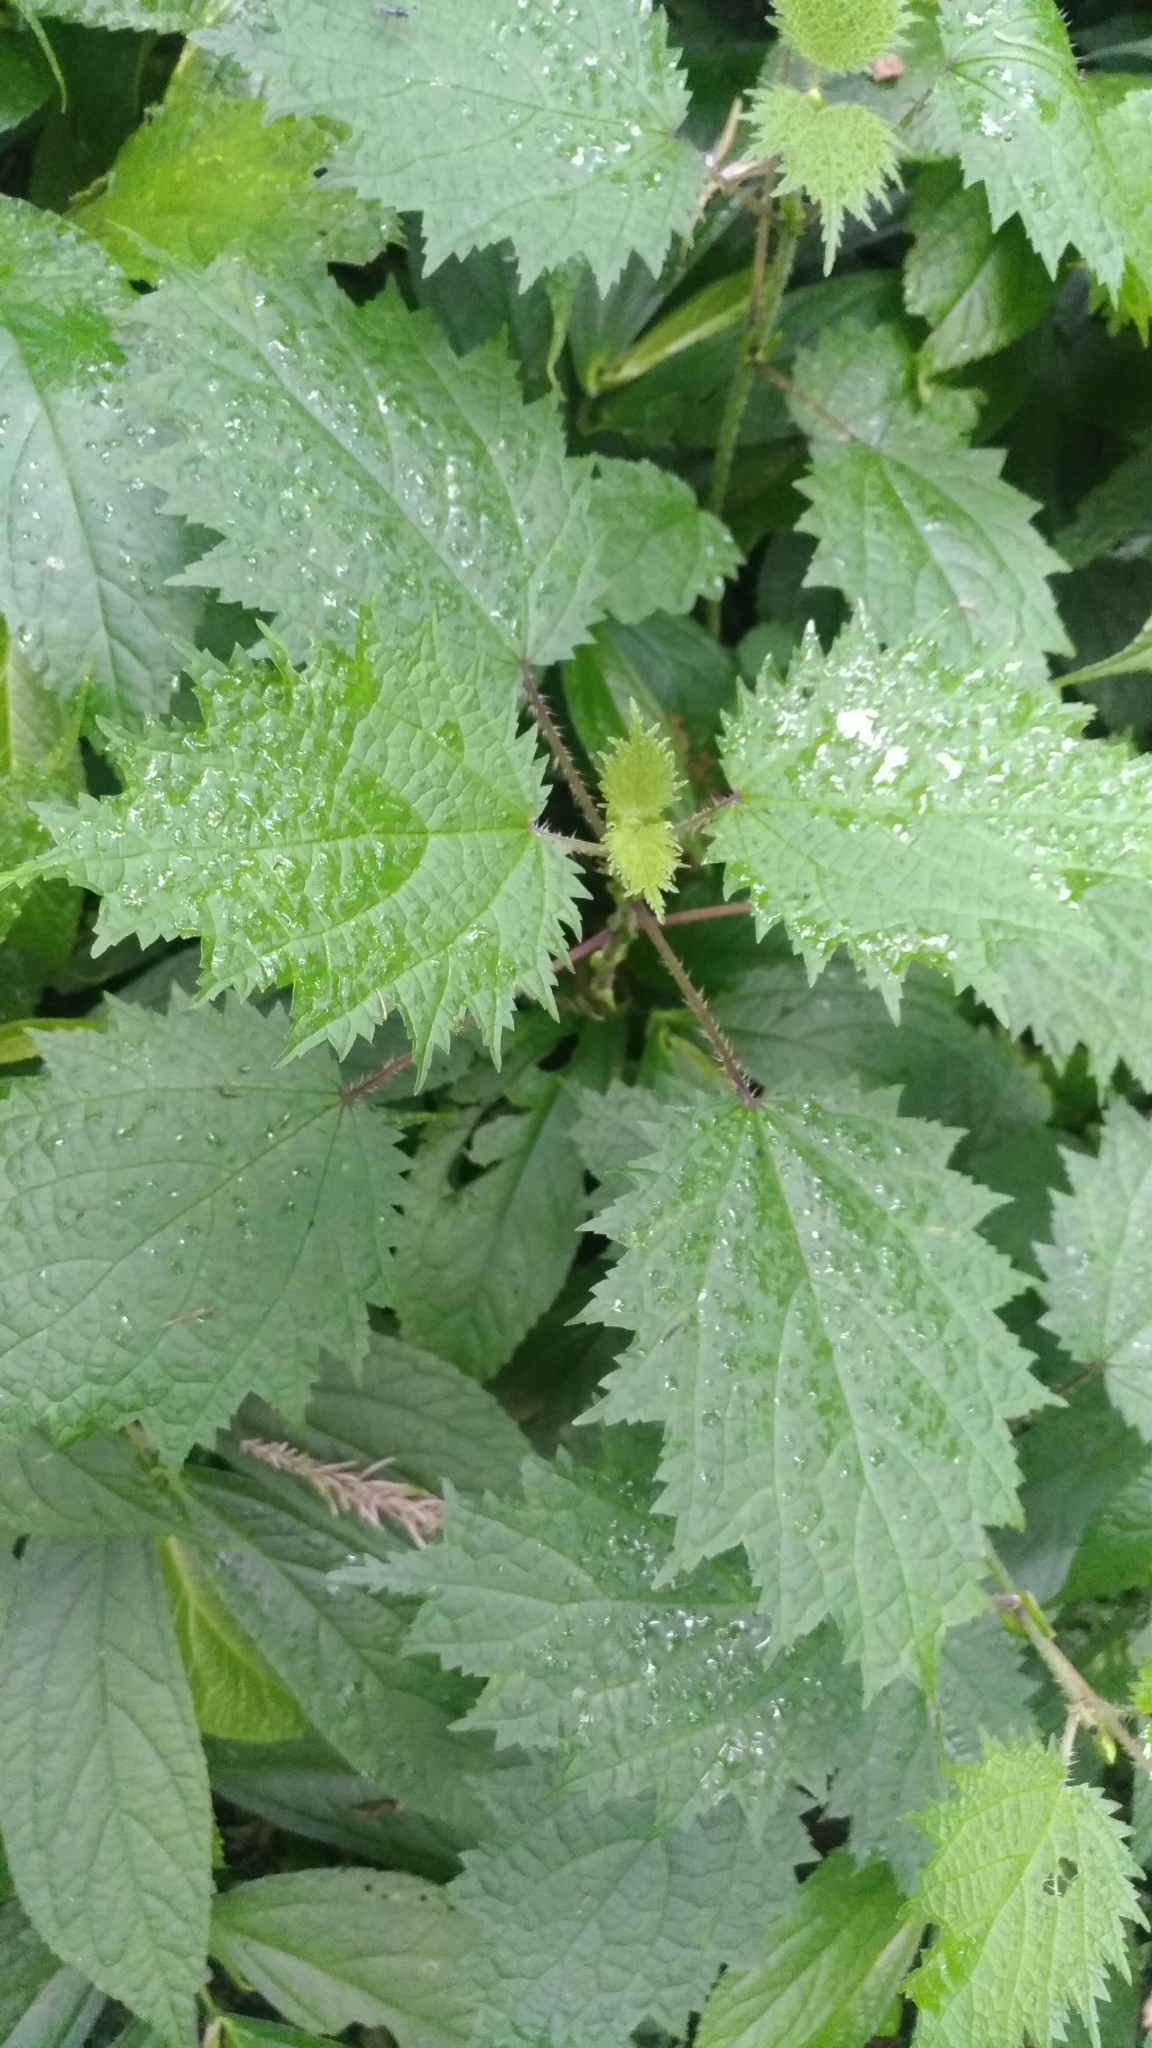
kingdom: Plantae
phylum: Tracheophyta
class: Magnoliopsida
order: Rosales
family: Urticaceae
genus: Urtica
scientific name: Urtica thunbergiana
